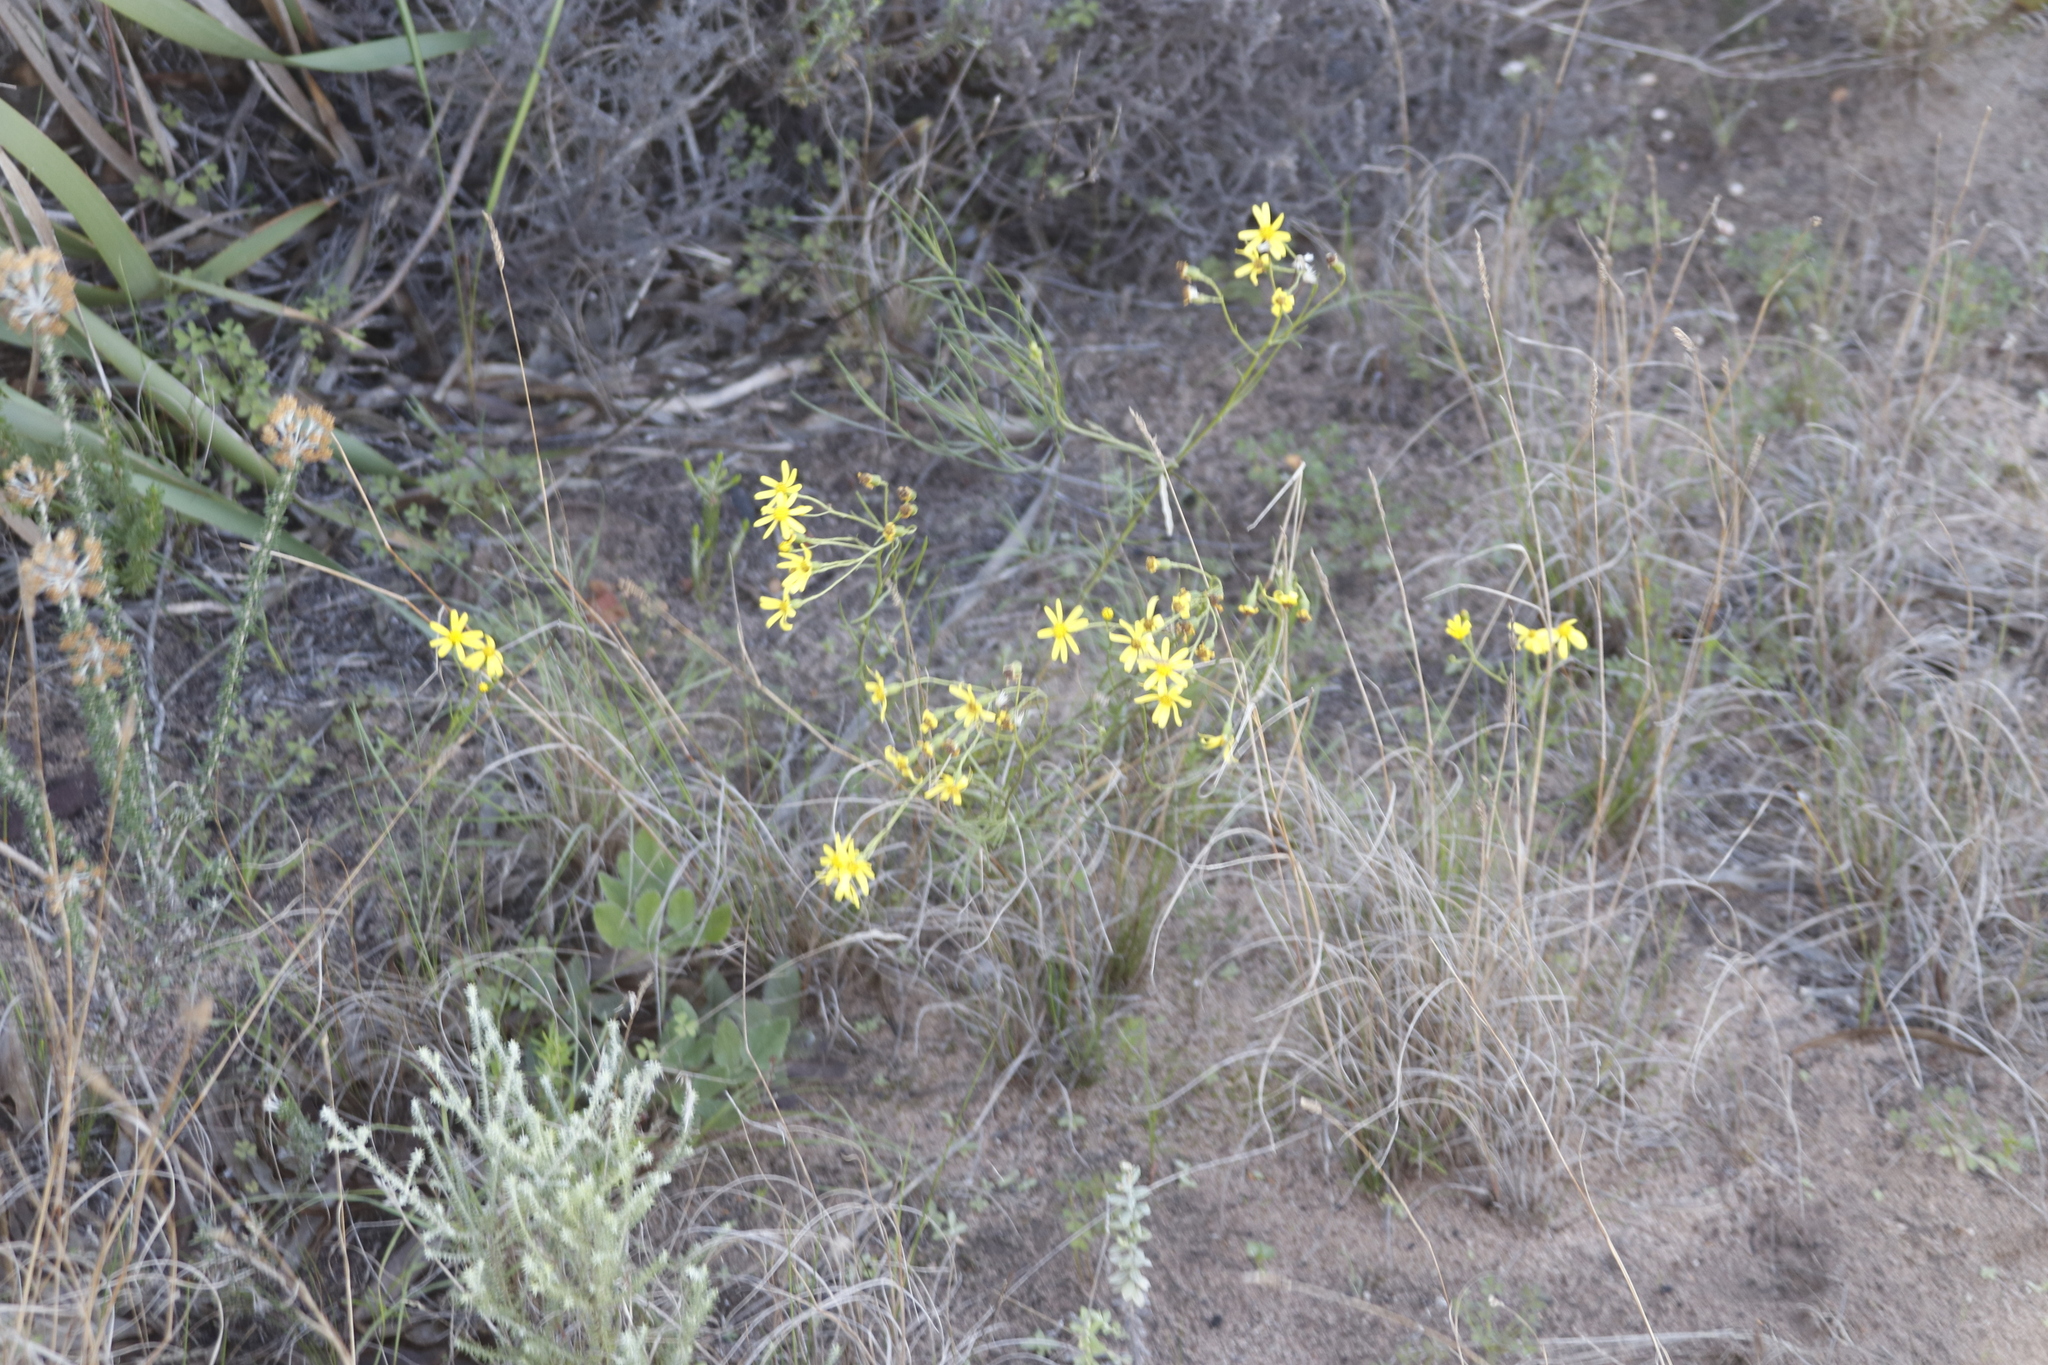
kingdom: Plantae
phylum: Tracheophyta
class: Magnoliopsida
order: Asterales
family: Asteraceae
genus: Senecio
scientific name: Senecio burchellii
